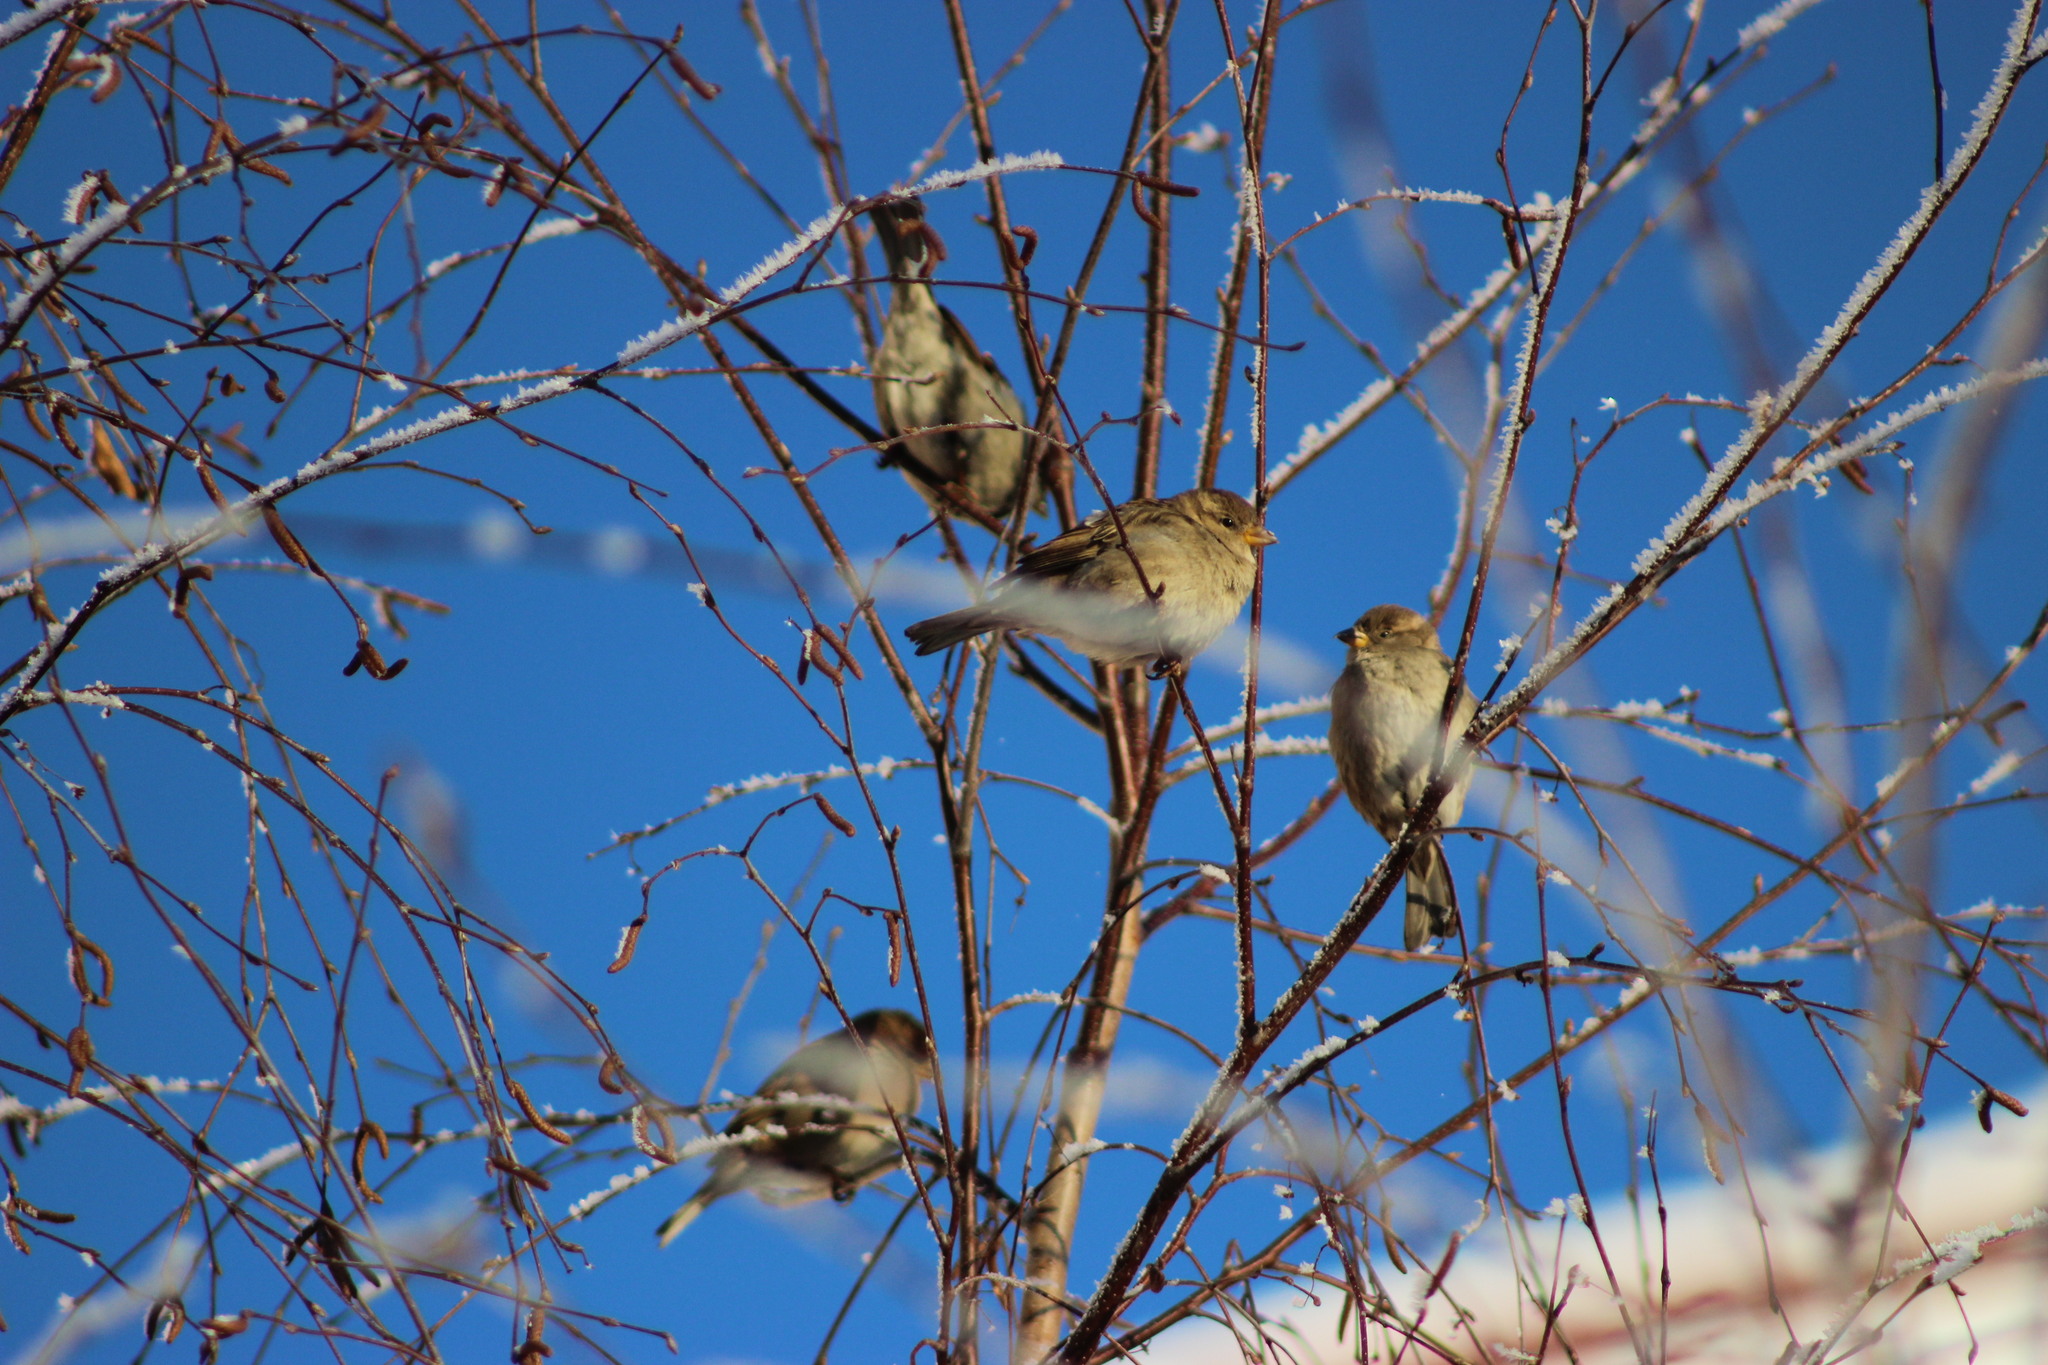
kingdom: Animalia
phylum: Chordata
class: Aves
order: Passeriformes
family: Passeridae
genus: Passer
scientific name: Passer domesticus
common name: House sparrow
